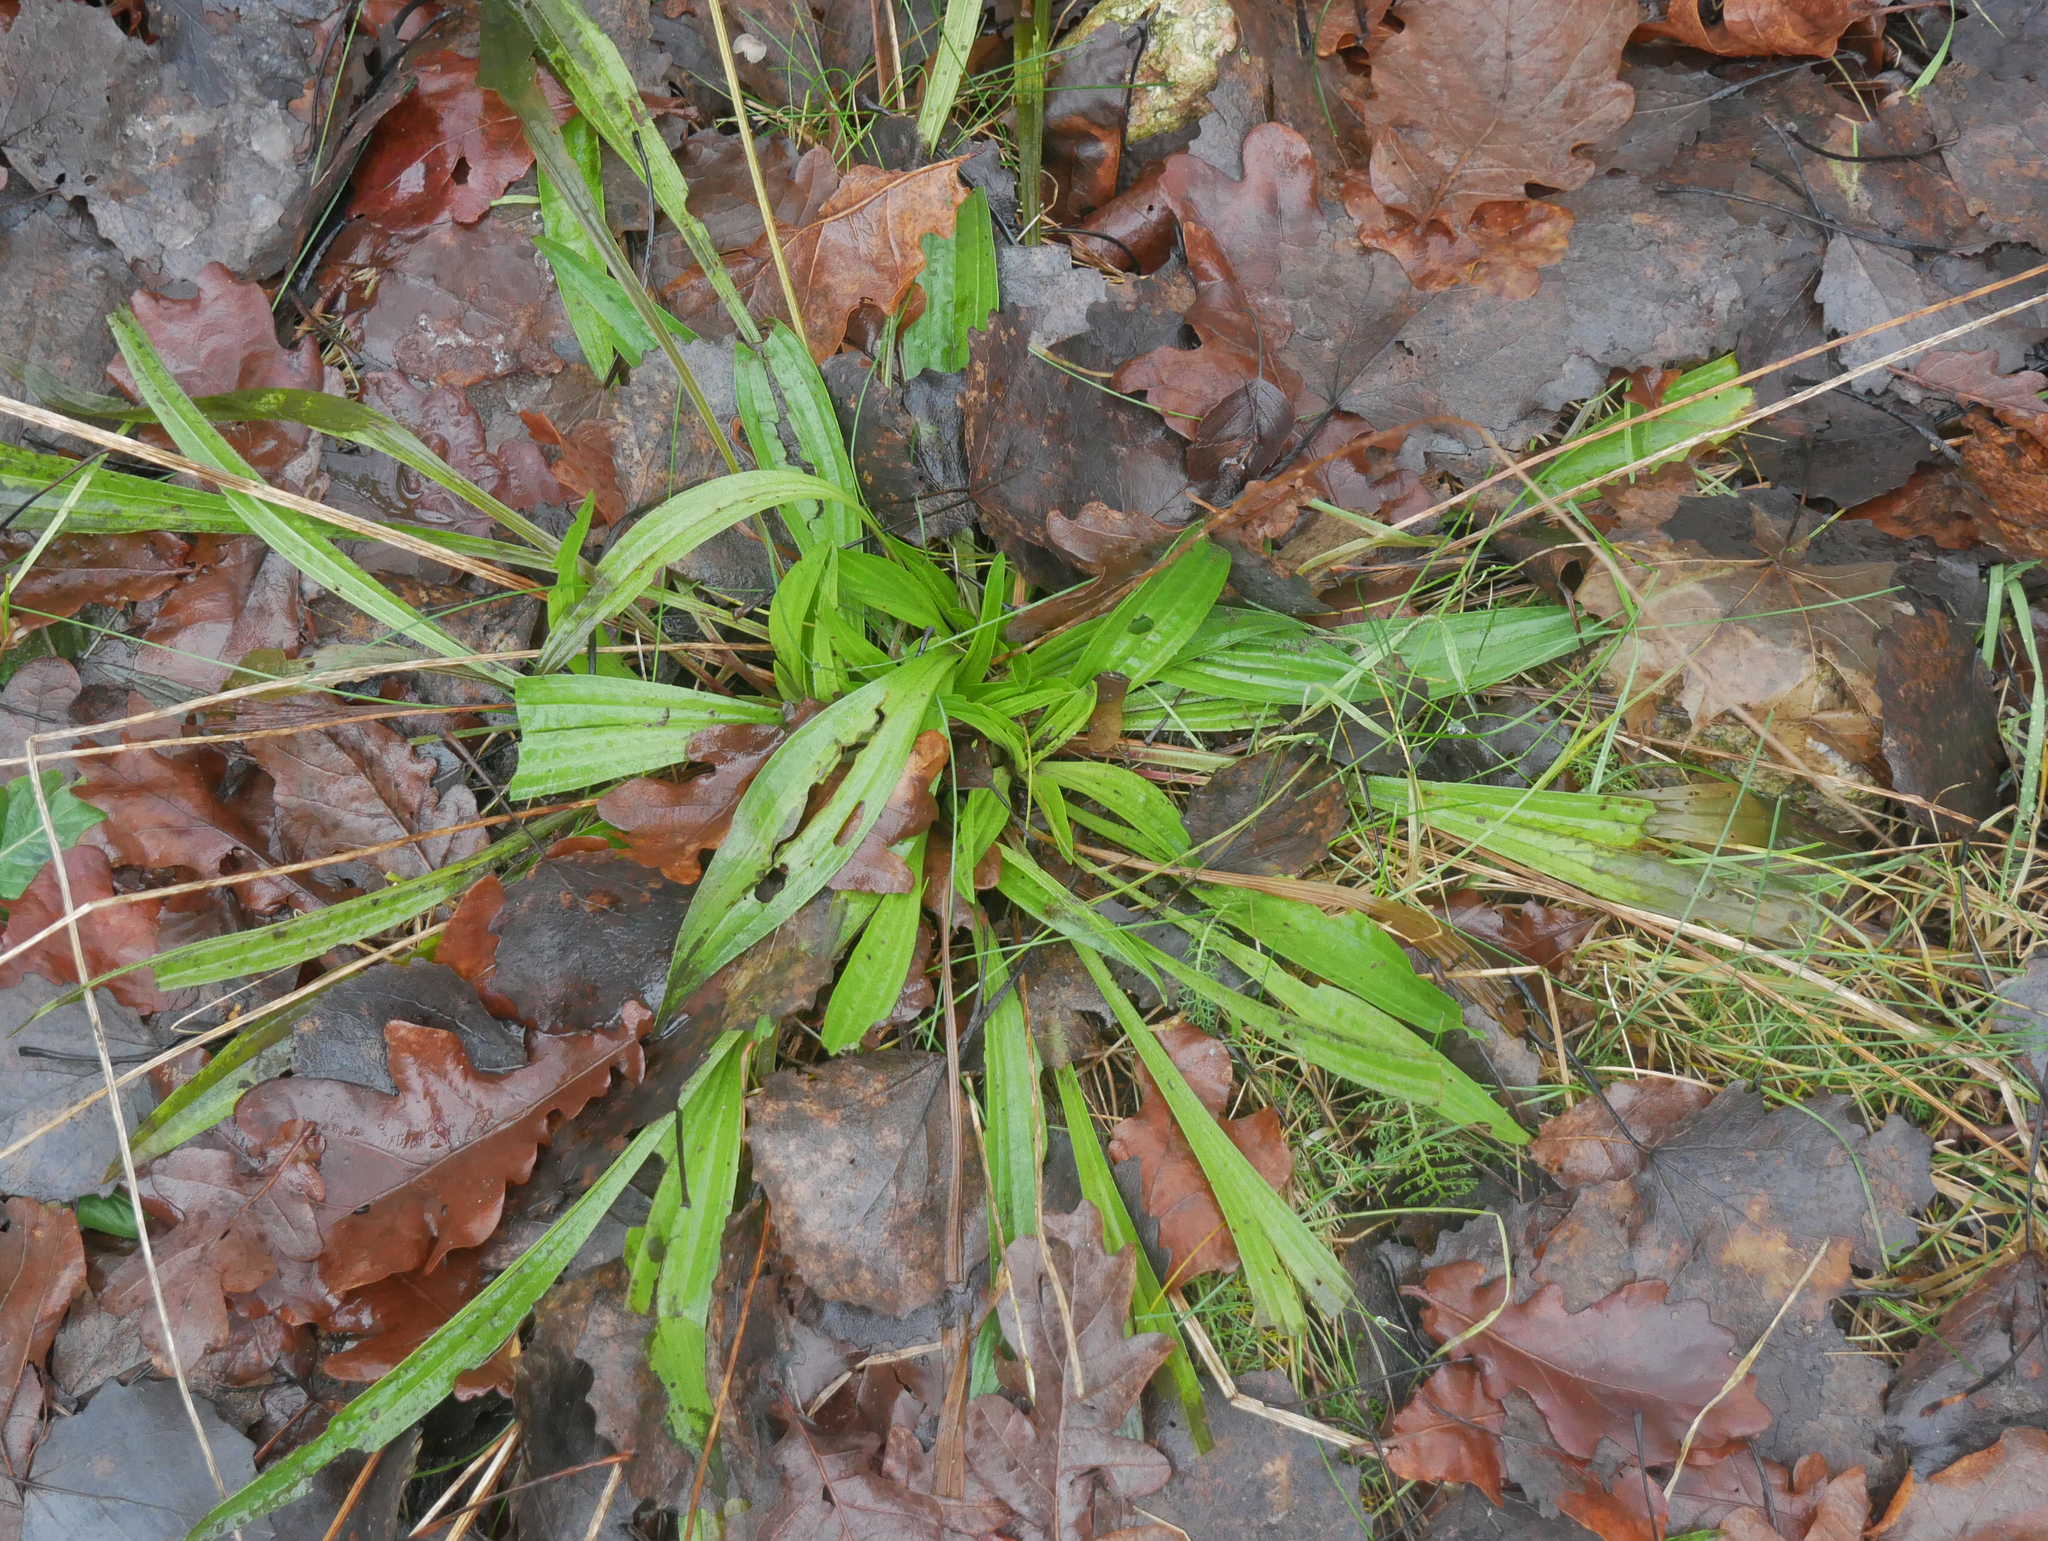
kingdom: Plantae
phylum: Tracheophyta
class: Magnoliopsida
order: Lamiales
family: Plantaginaceae
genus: Plantago
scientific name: Plantago lanceolata
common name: Ribwort plantain
